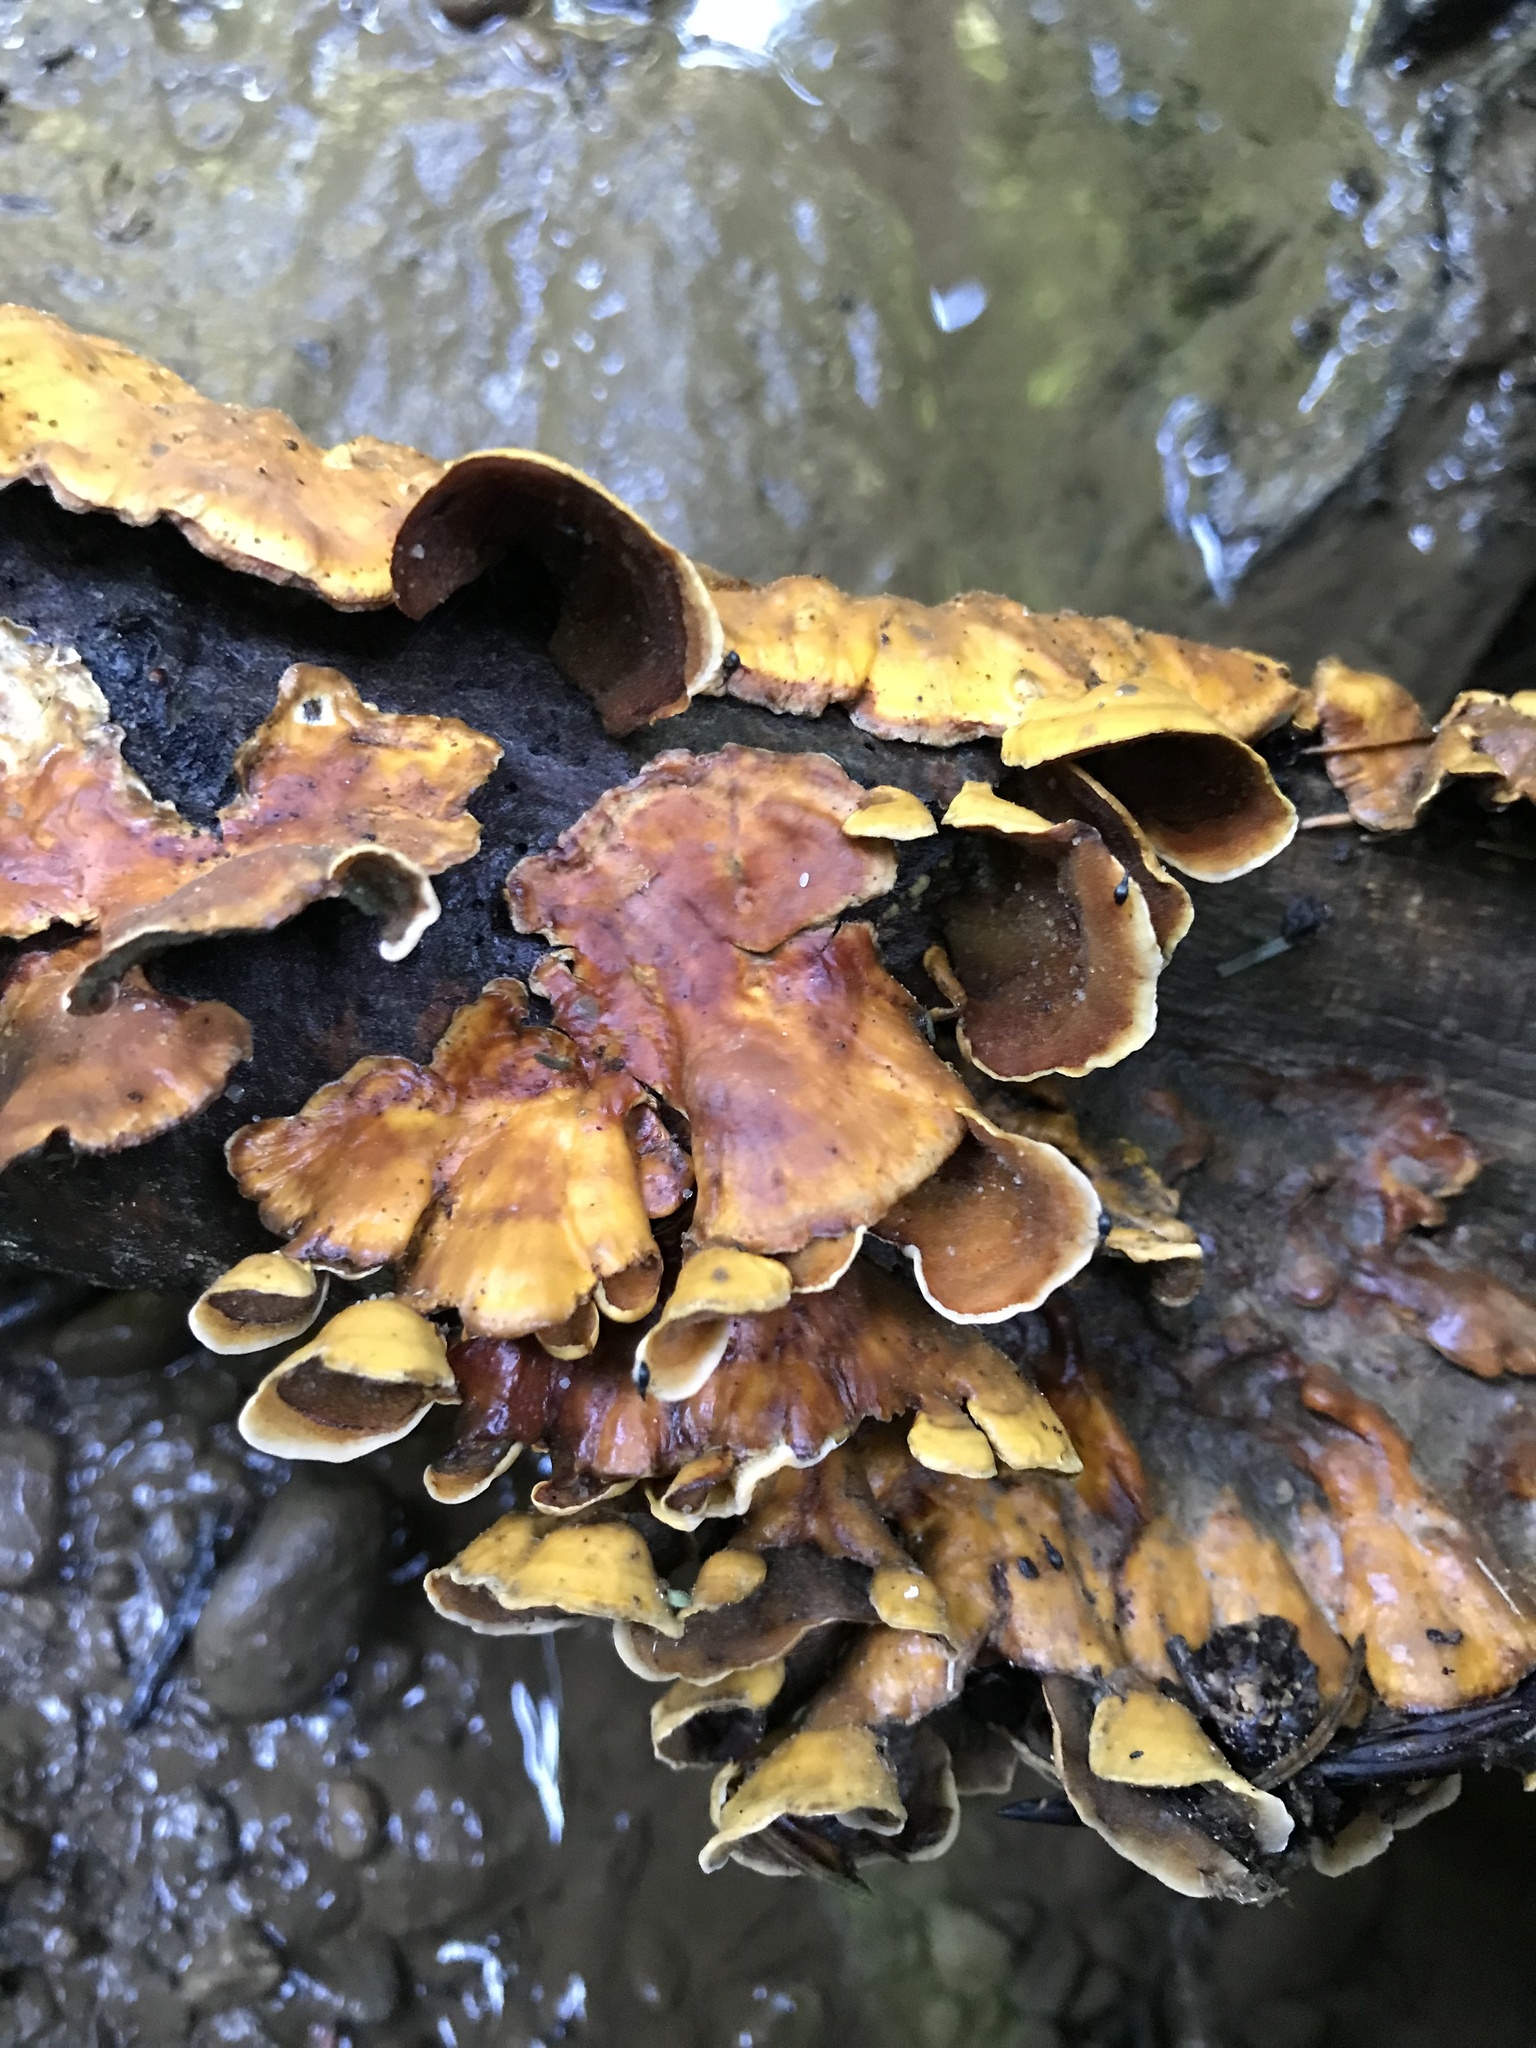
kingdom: Fungi
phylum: Basidiomycota
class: Agaricomycetes
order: Russulales
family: Stereaceae
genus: Stereum
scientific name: Stereum complicatum
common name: Crowded parchment
